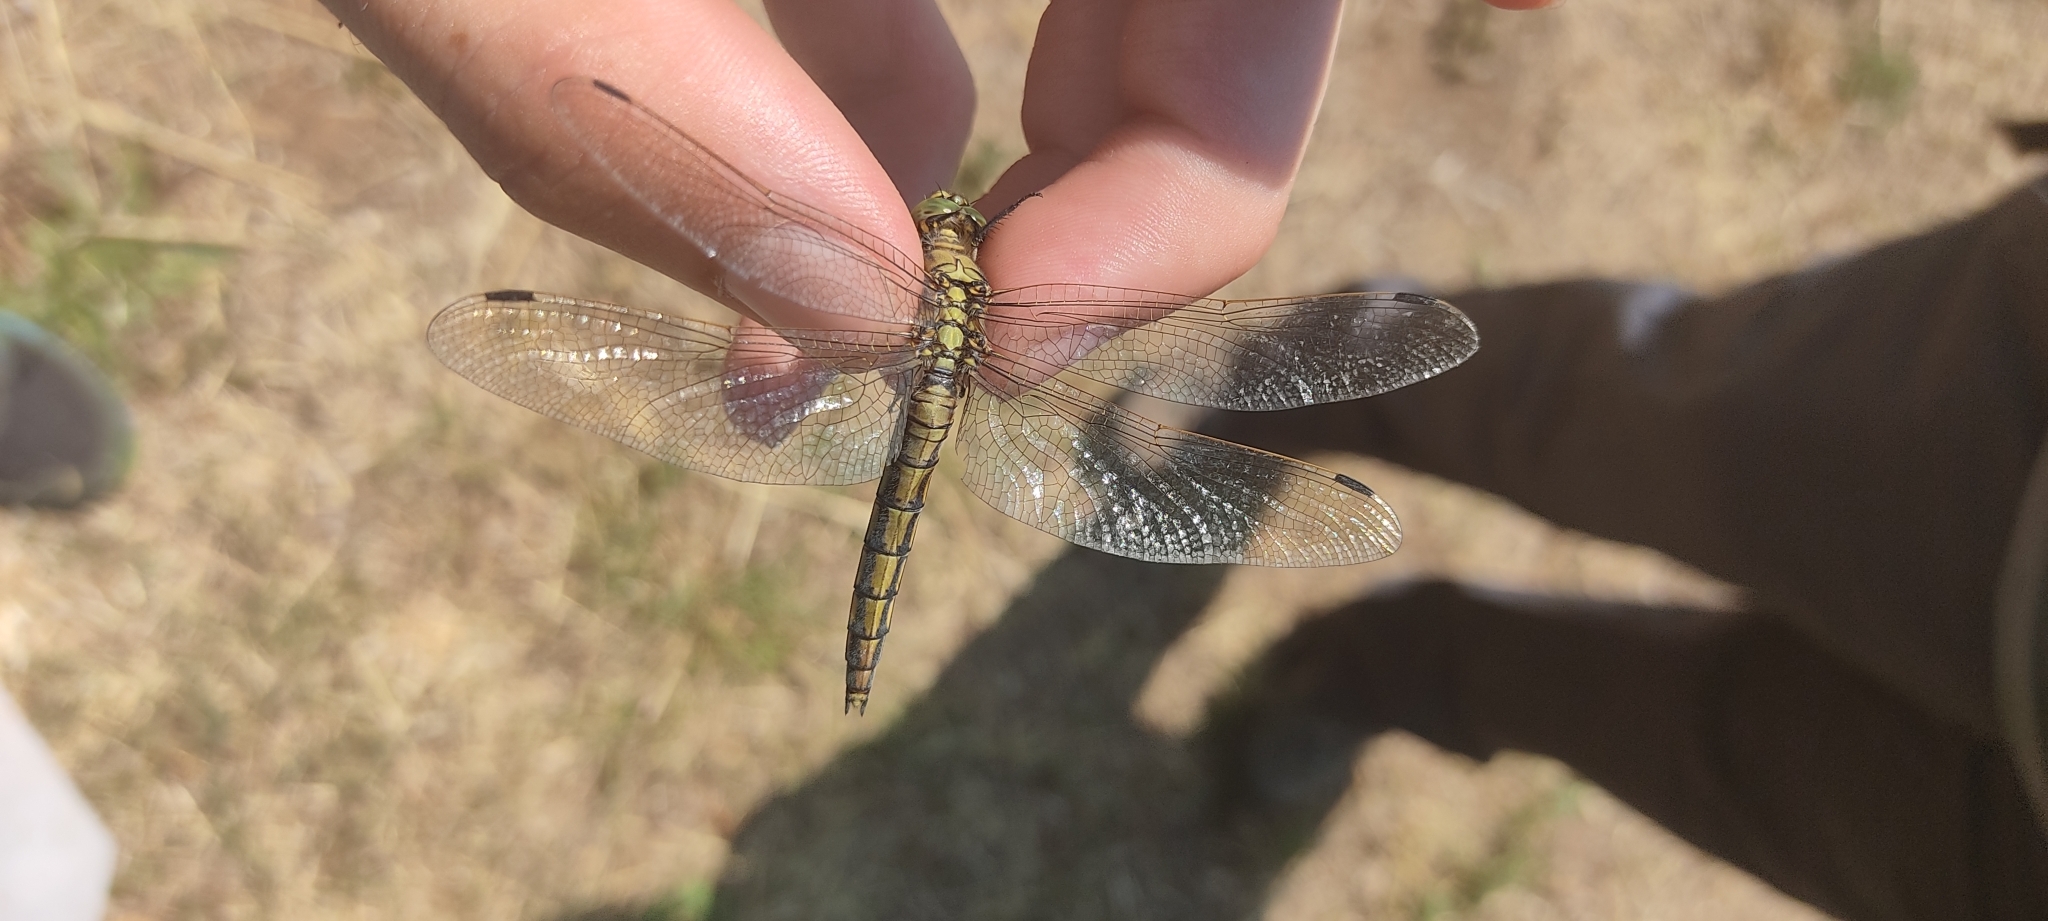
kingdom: Animalia
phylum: Arthropoda
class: Insecta
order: Odonata
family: Libellulidae
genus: Orthetrum
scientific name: Orthetrum cancellatum
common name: Black-tailed skimmer
